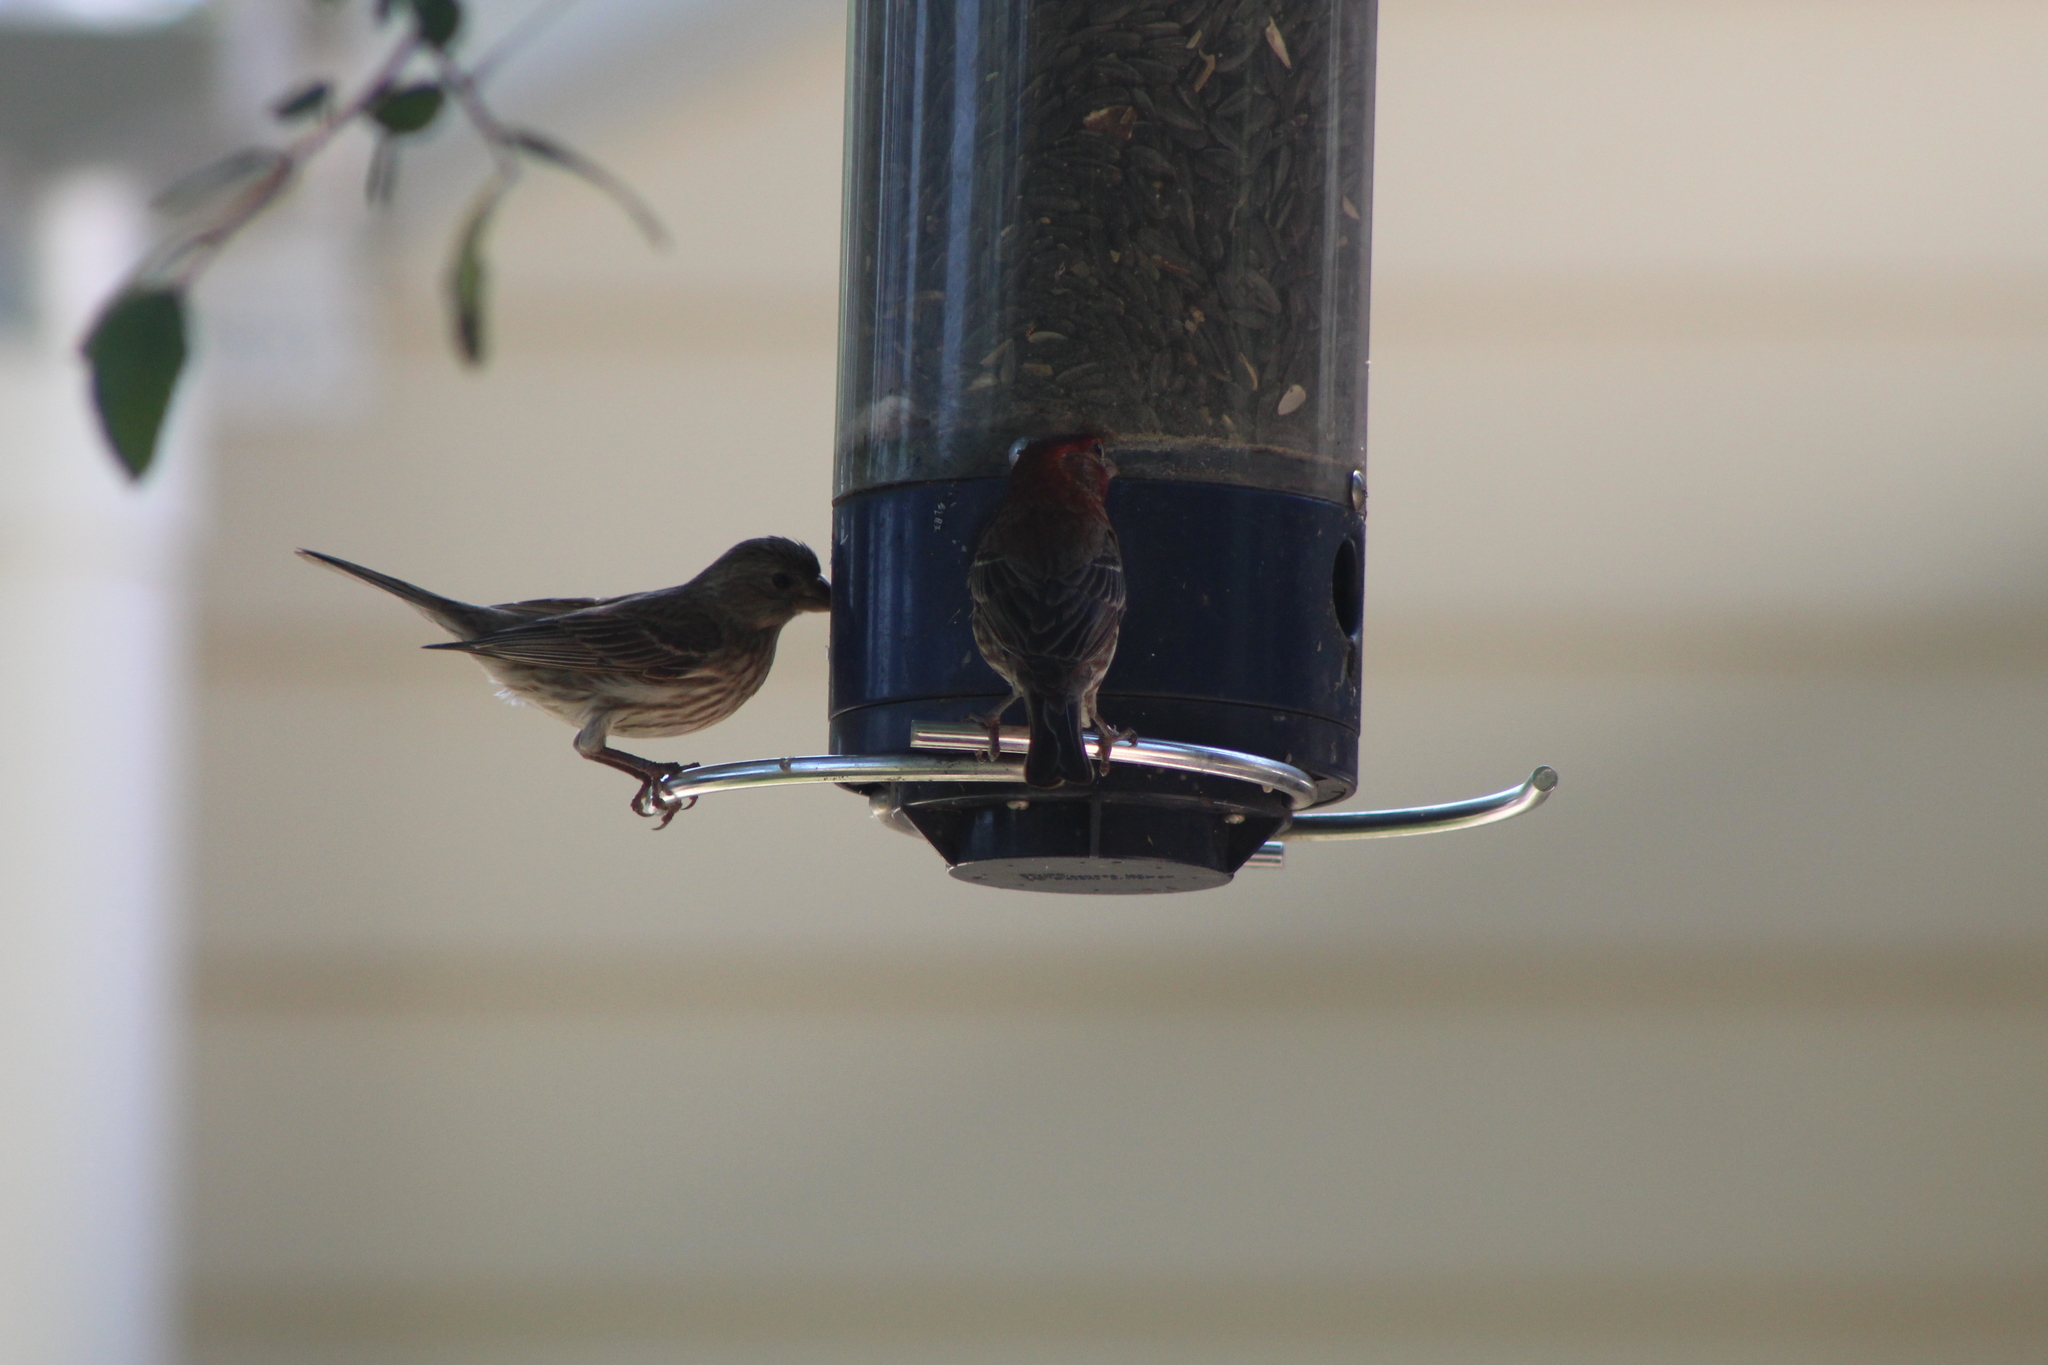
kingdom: Animalia
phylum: Chordata
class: Aves
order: Passeriformes
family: Fringillidae
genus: Haemorhous
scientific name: Haemorhous mexicanus
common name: House finch
